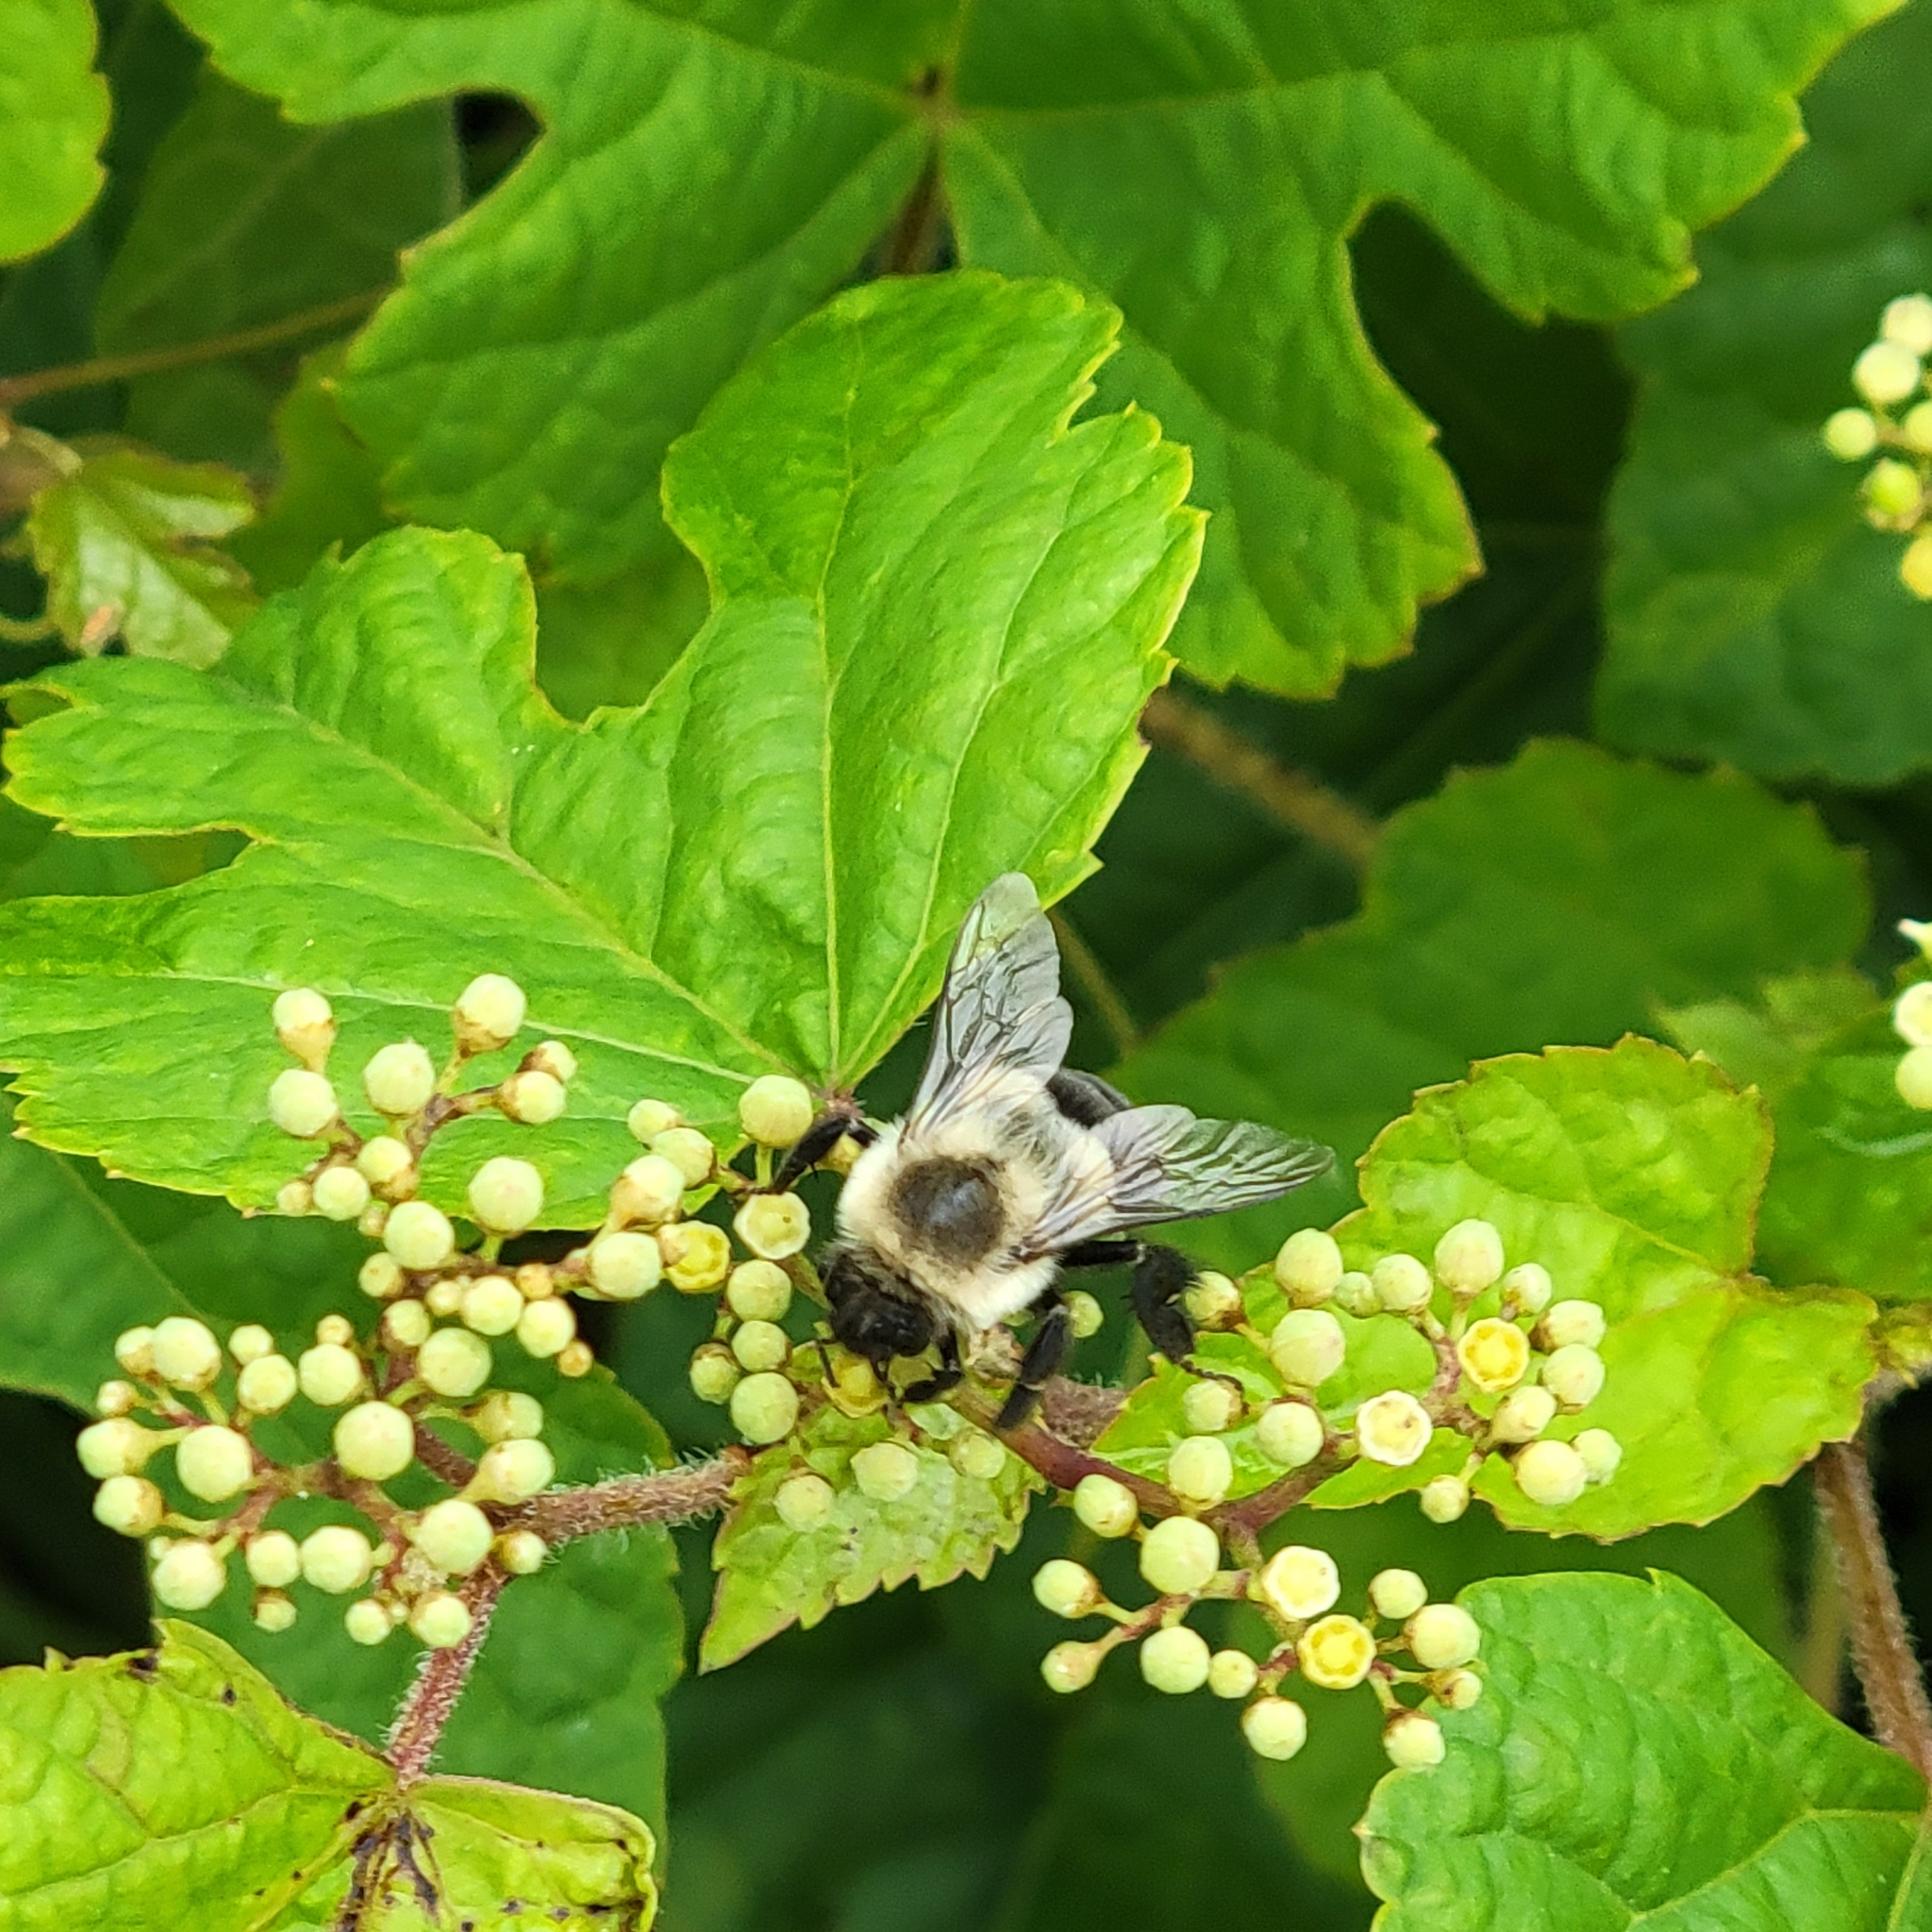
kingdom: Animalia
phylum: Arthropoda
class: Insecta
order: Hymenoptera
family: Apidae
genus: Bombus
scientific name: Bombus impatiens
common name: Common eastern bumble bee
